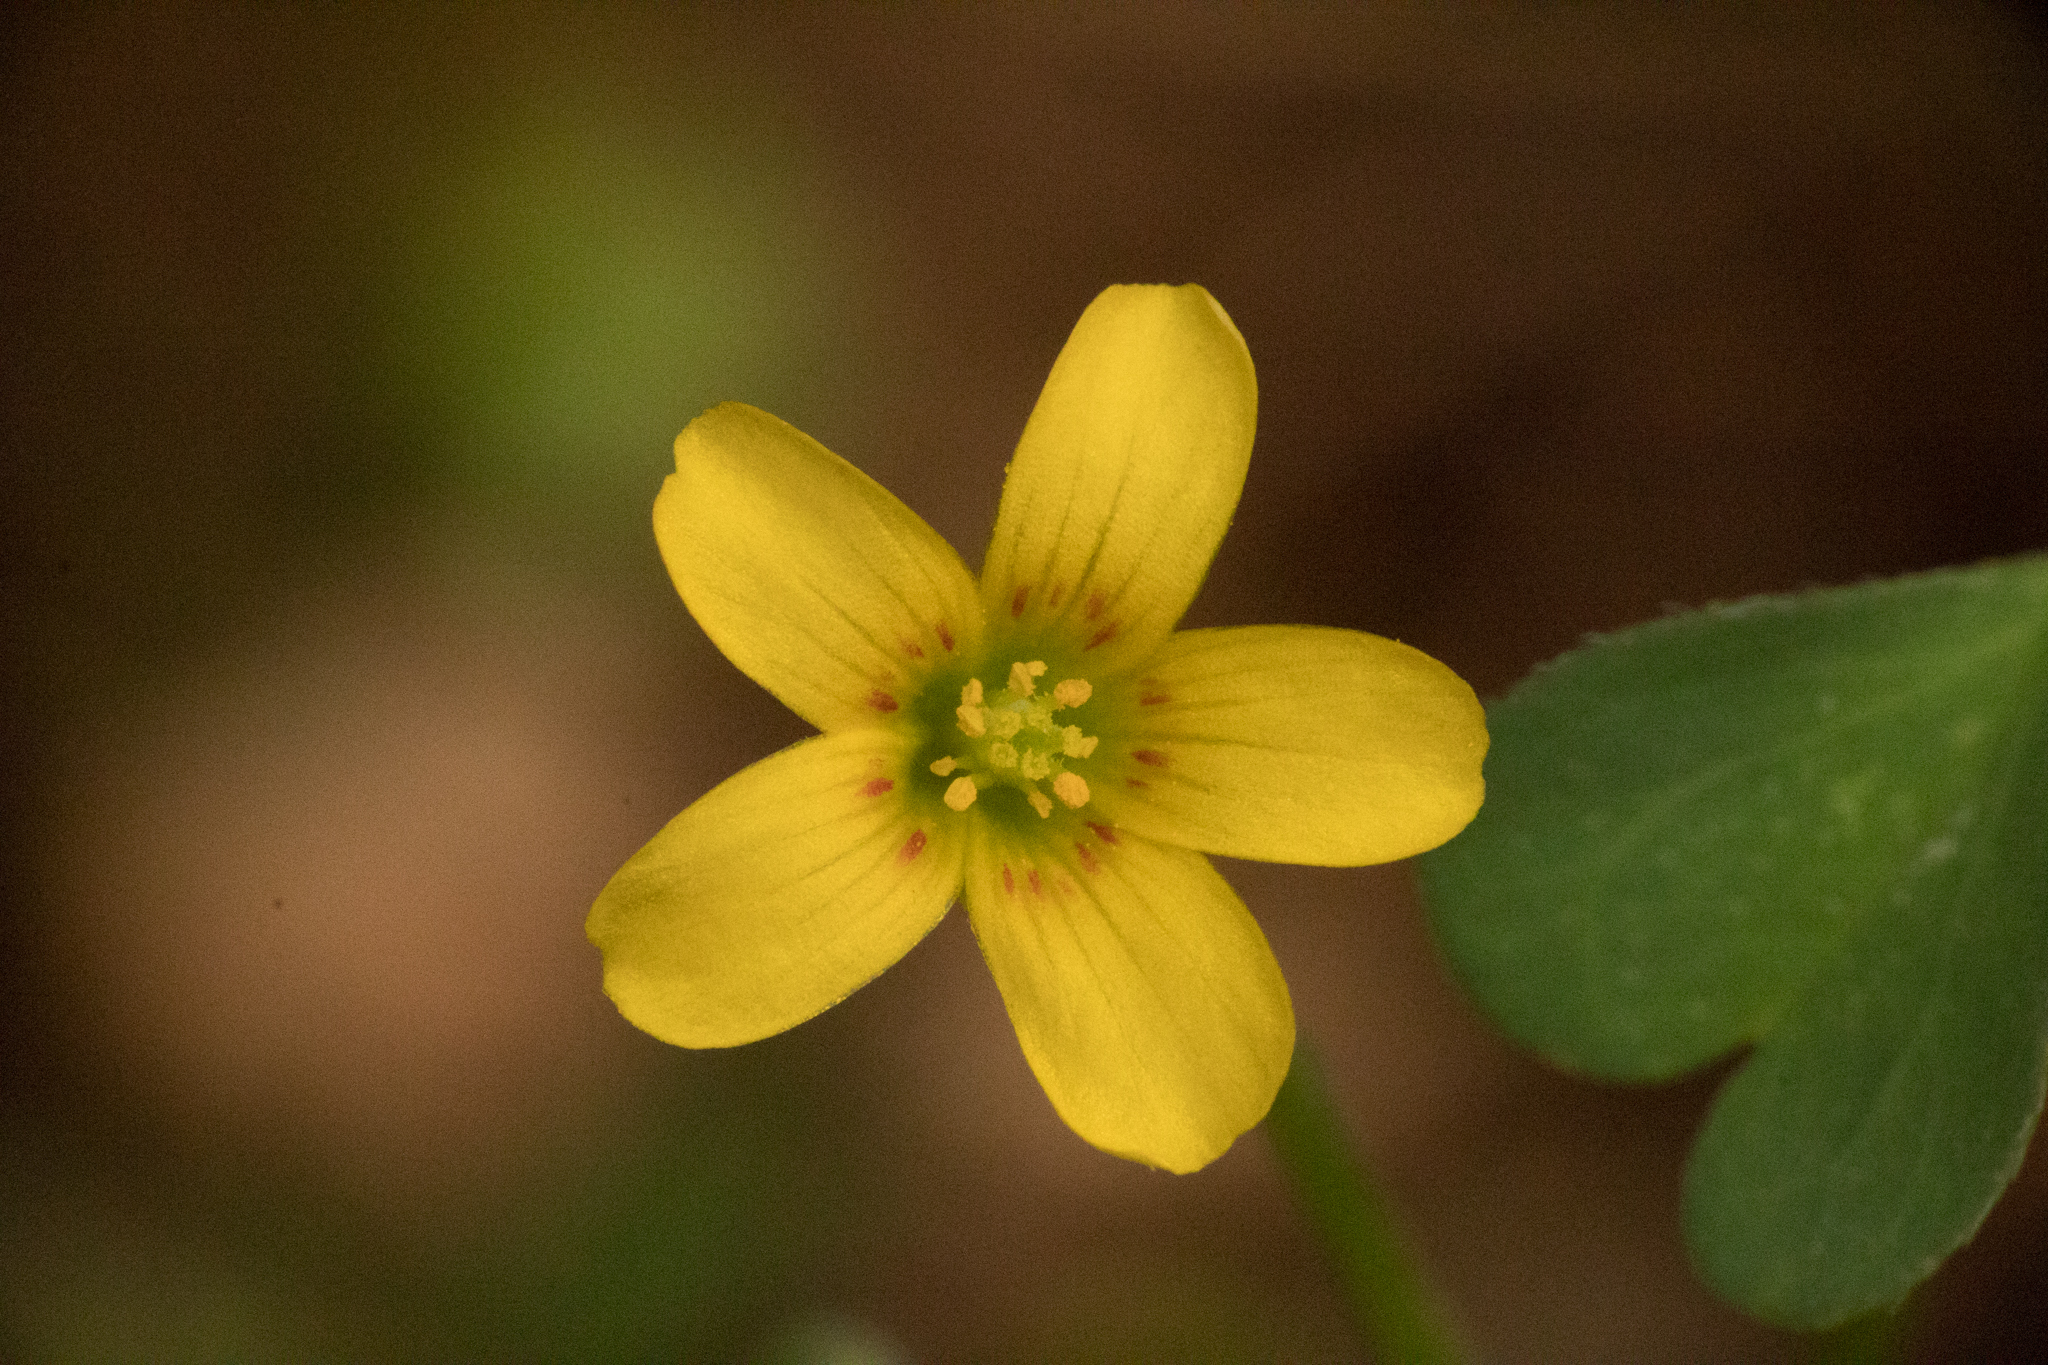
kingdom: Plantae
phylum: Tracheophyta
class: Magnoliopsida
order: Oxalidales
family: Oxalidaceae
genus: Oxalis
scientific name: Oxalis corniculata
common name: Procumbent yellow-sorrel
